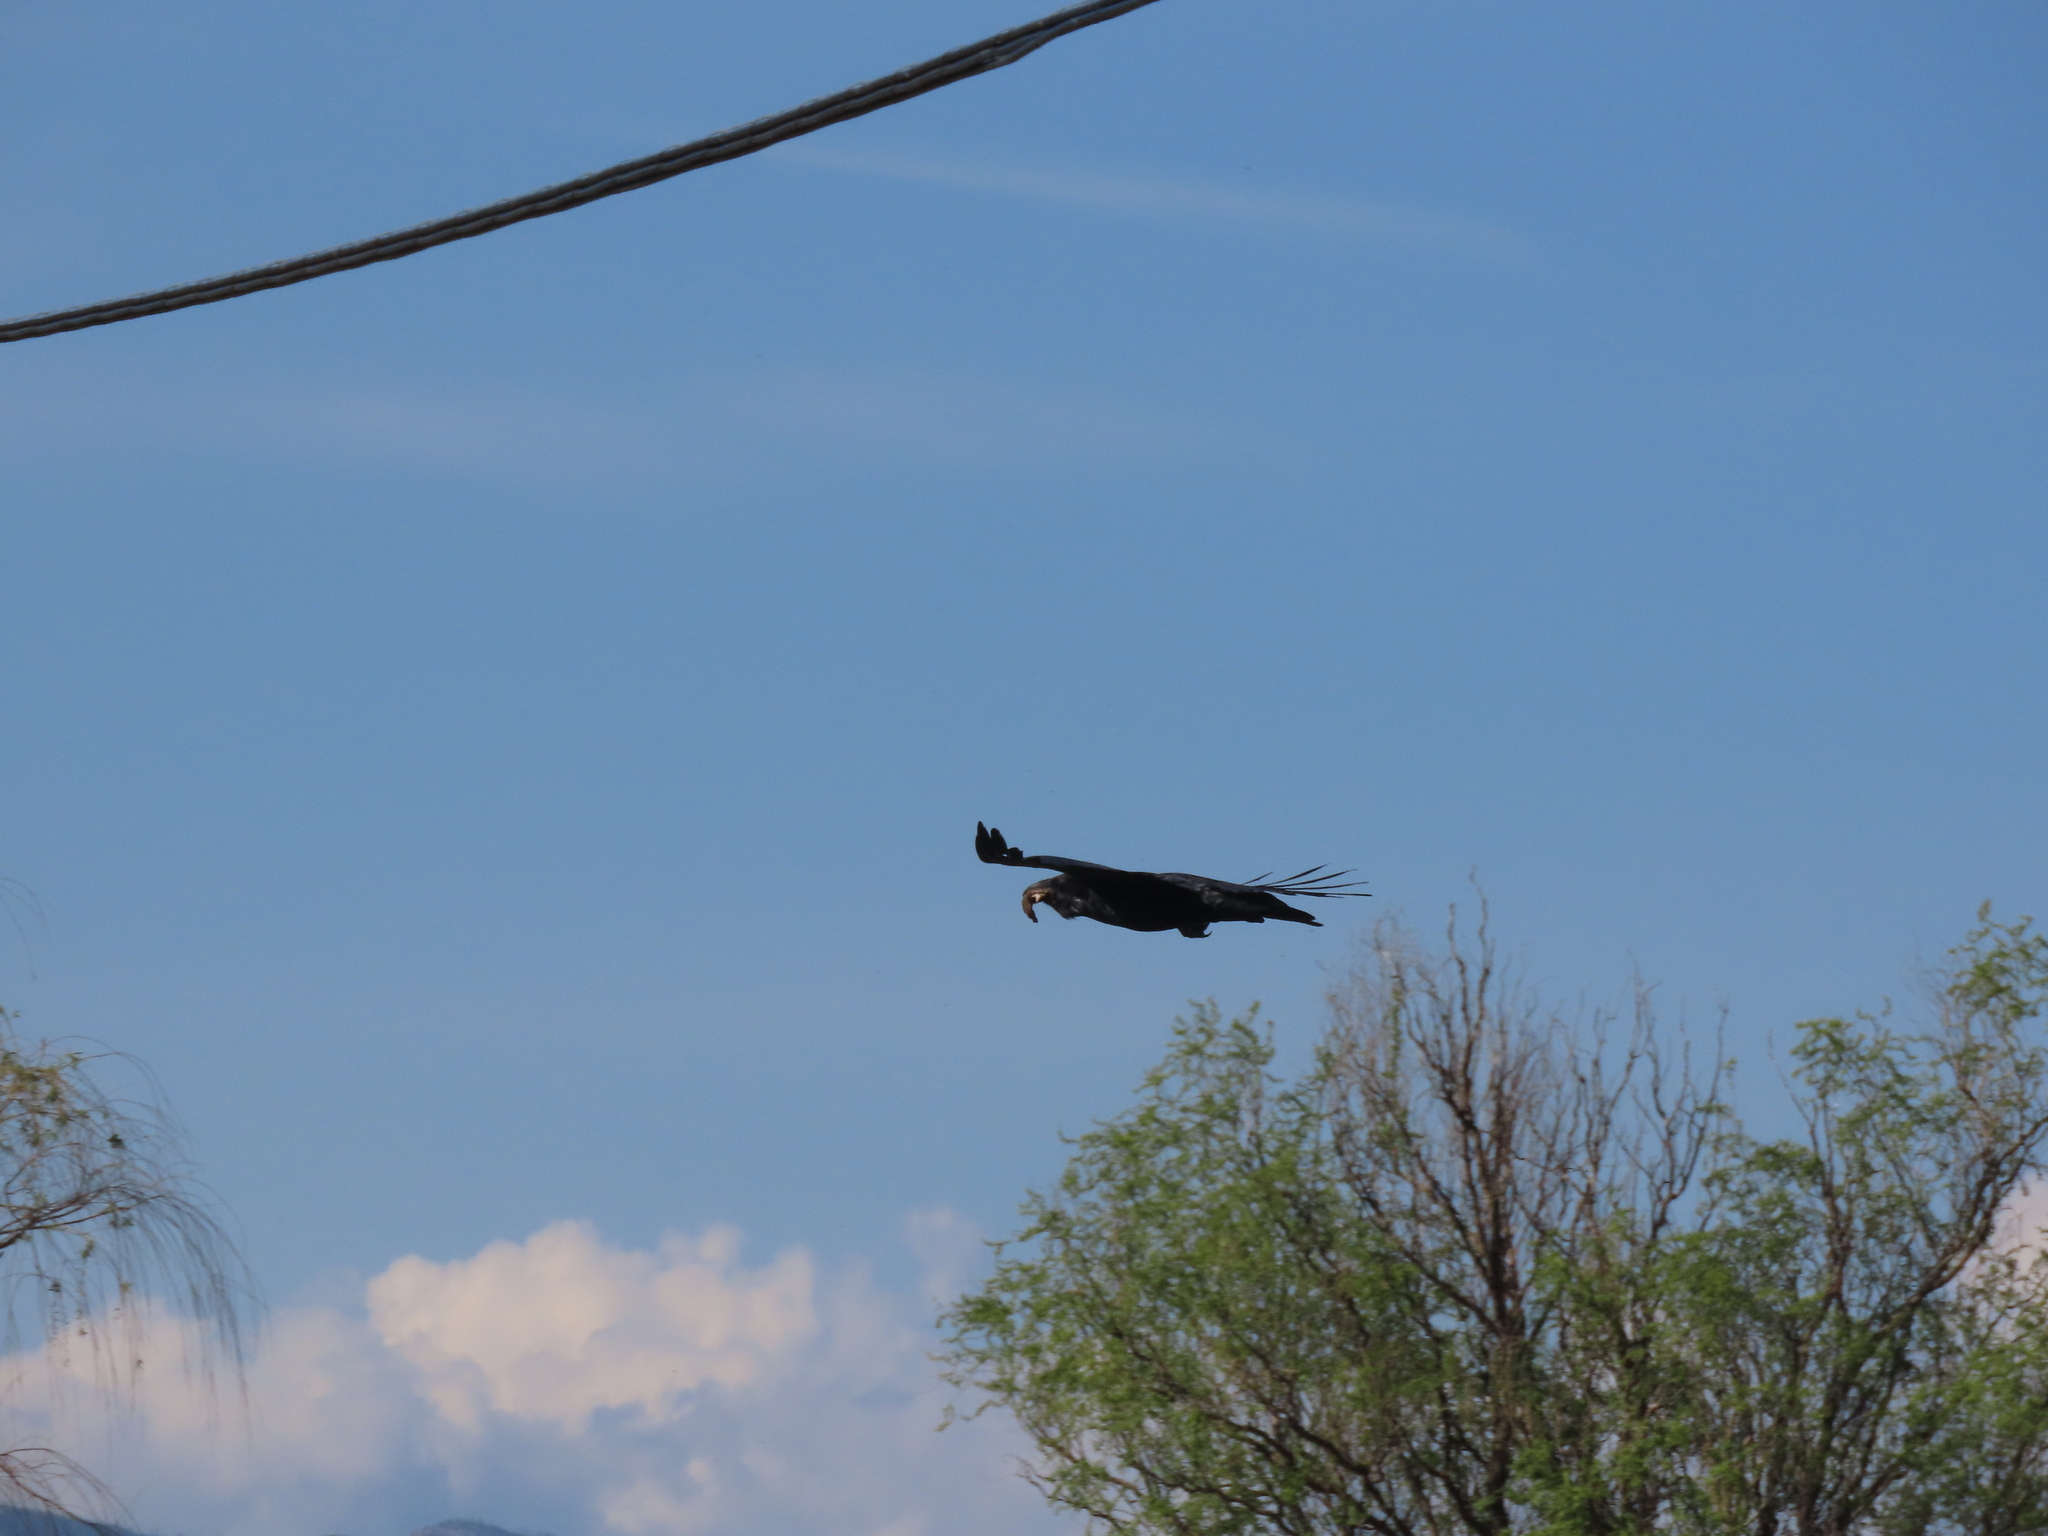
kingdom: Animalia
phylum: Chordata
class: Aves
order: Passeriformes
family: Corvidae
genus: Corvus
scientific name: Corvus corax
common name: Common raven
